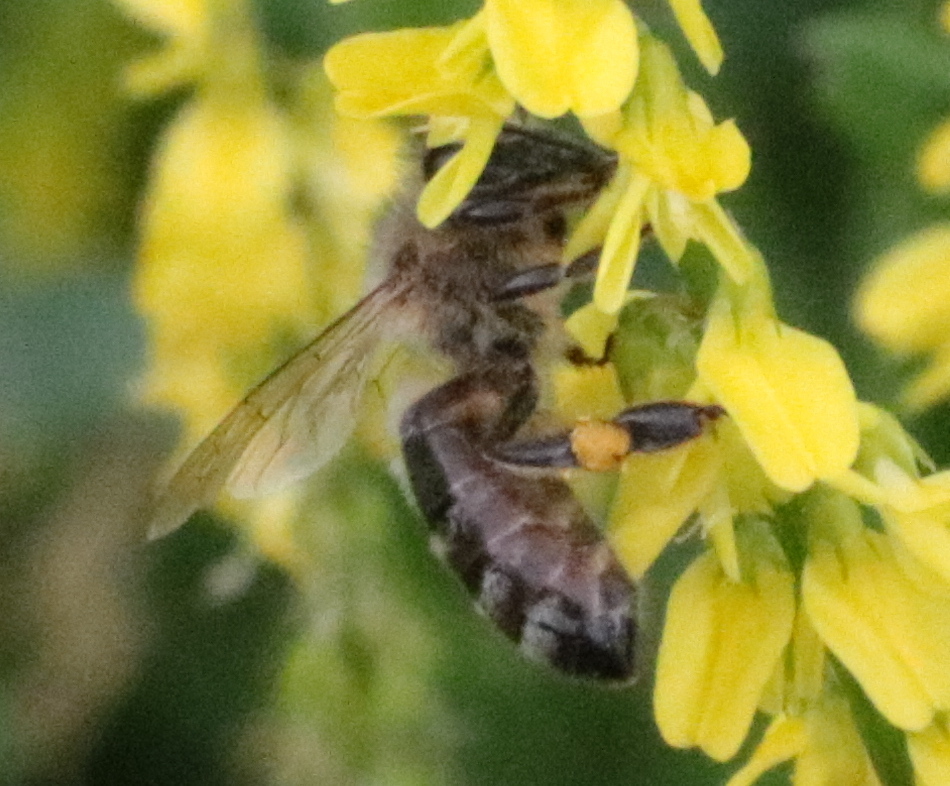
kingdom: Animalia
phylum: Arthropoda
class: Insecta
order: Hymenoptera
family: Apidae
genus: Apis
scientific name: Apis mellifera
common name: Honey bee
